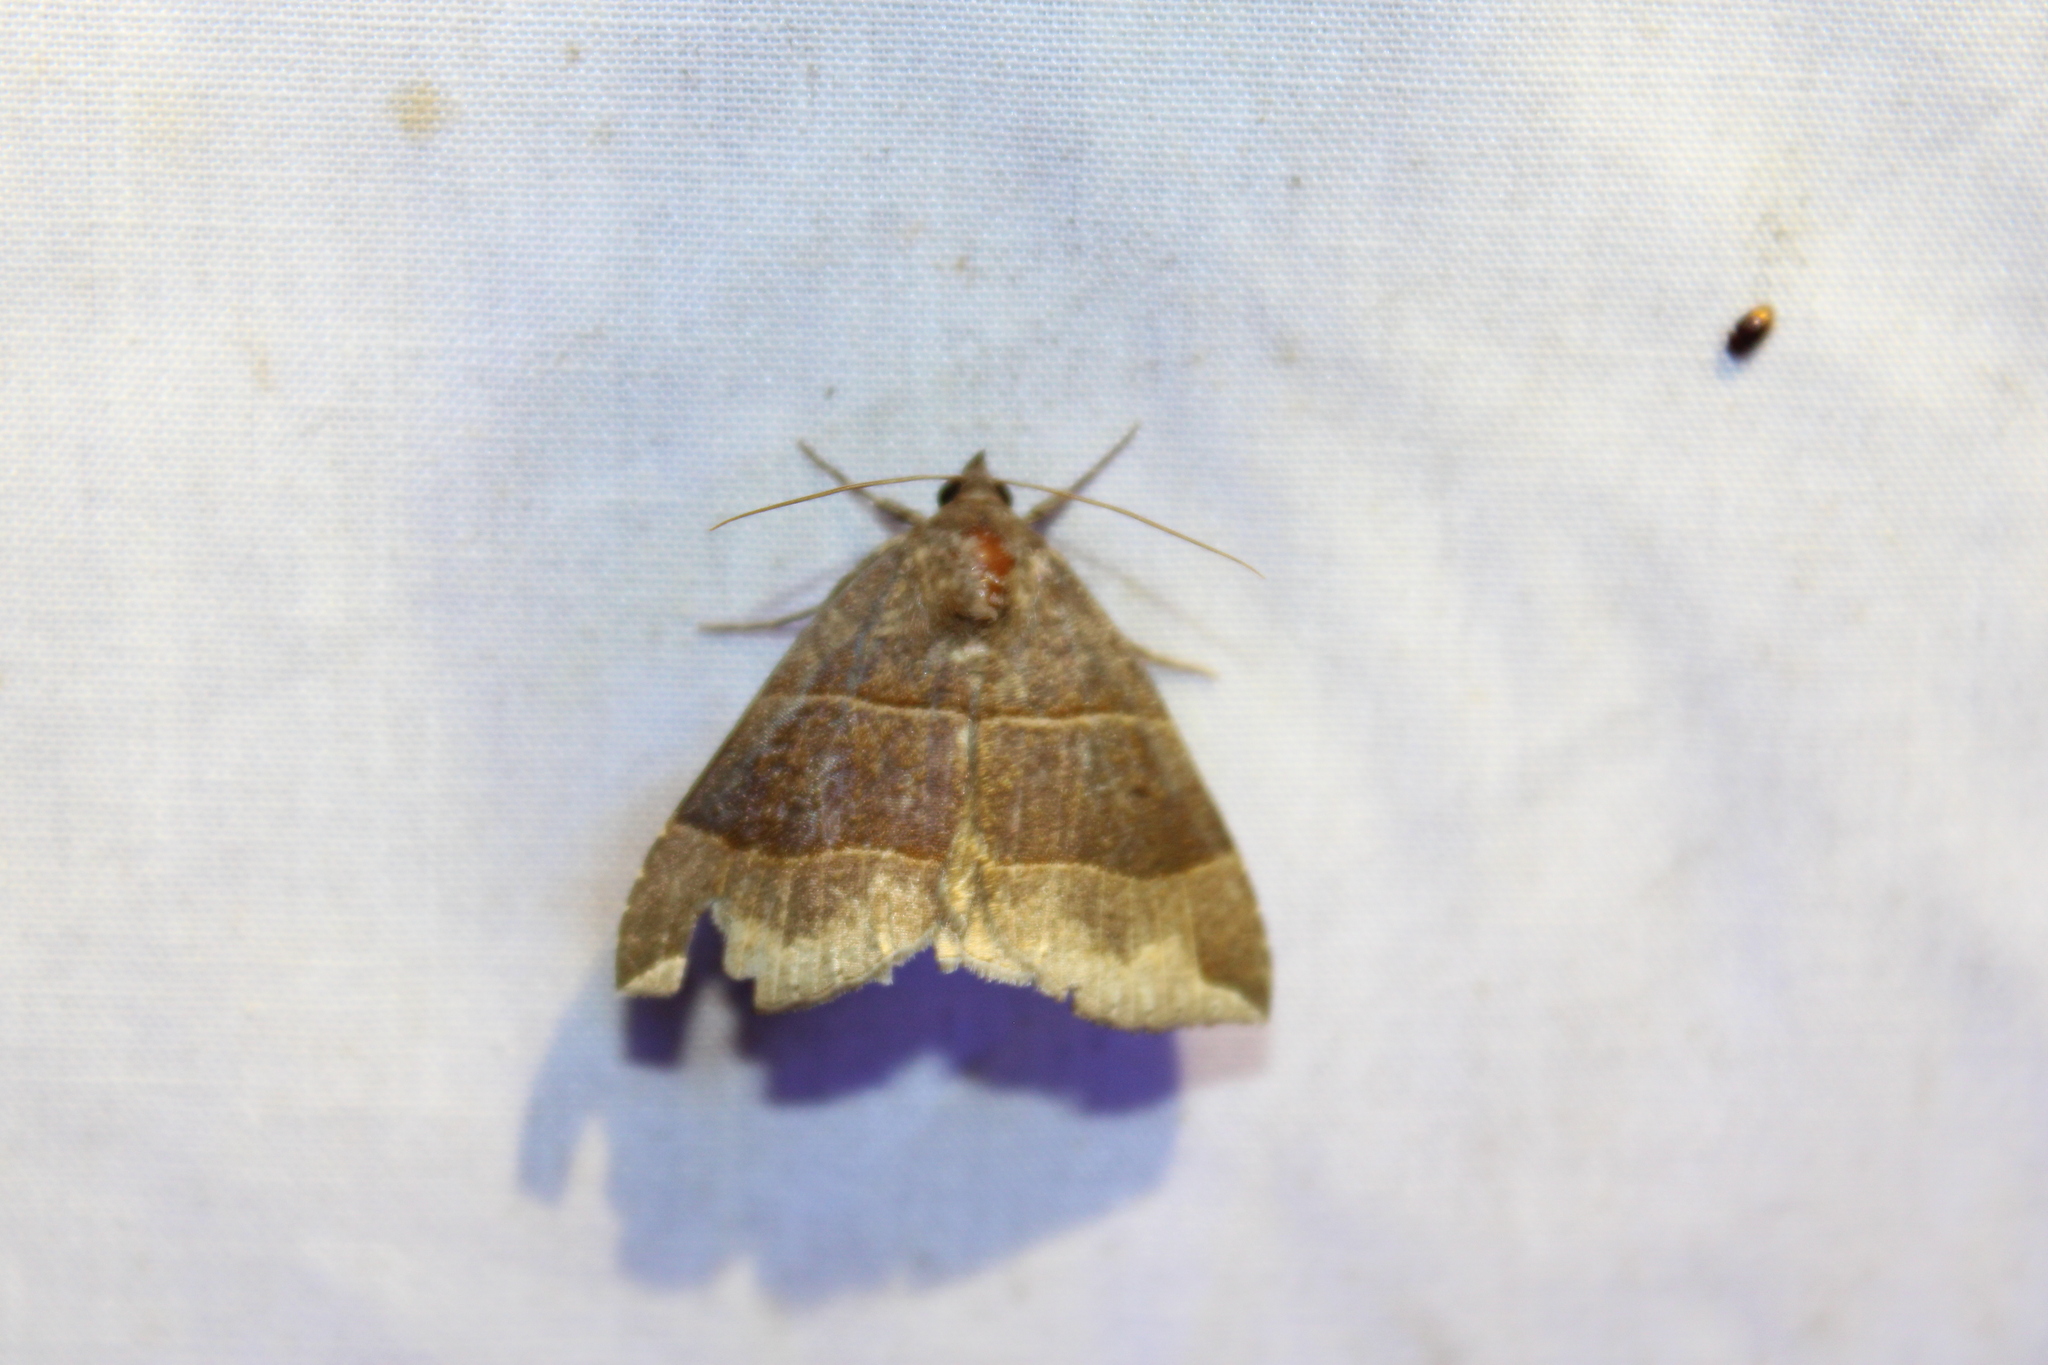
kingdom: Animalia
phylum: Arthropoda
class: Insecta
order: Lepidoptera
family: Erebidae
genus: Parallelia
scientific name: Parallelia bistriaris
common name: Maple looper moth
